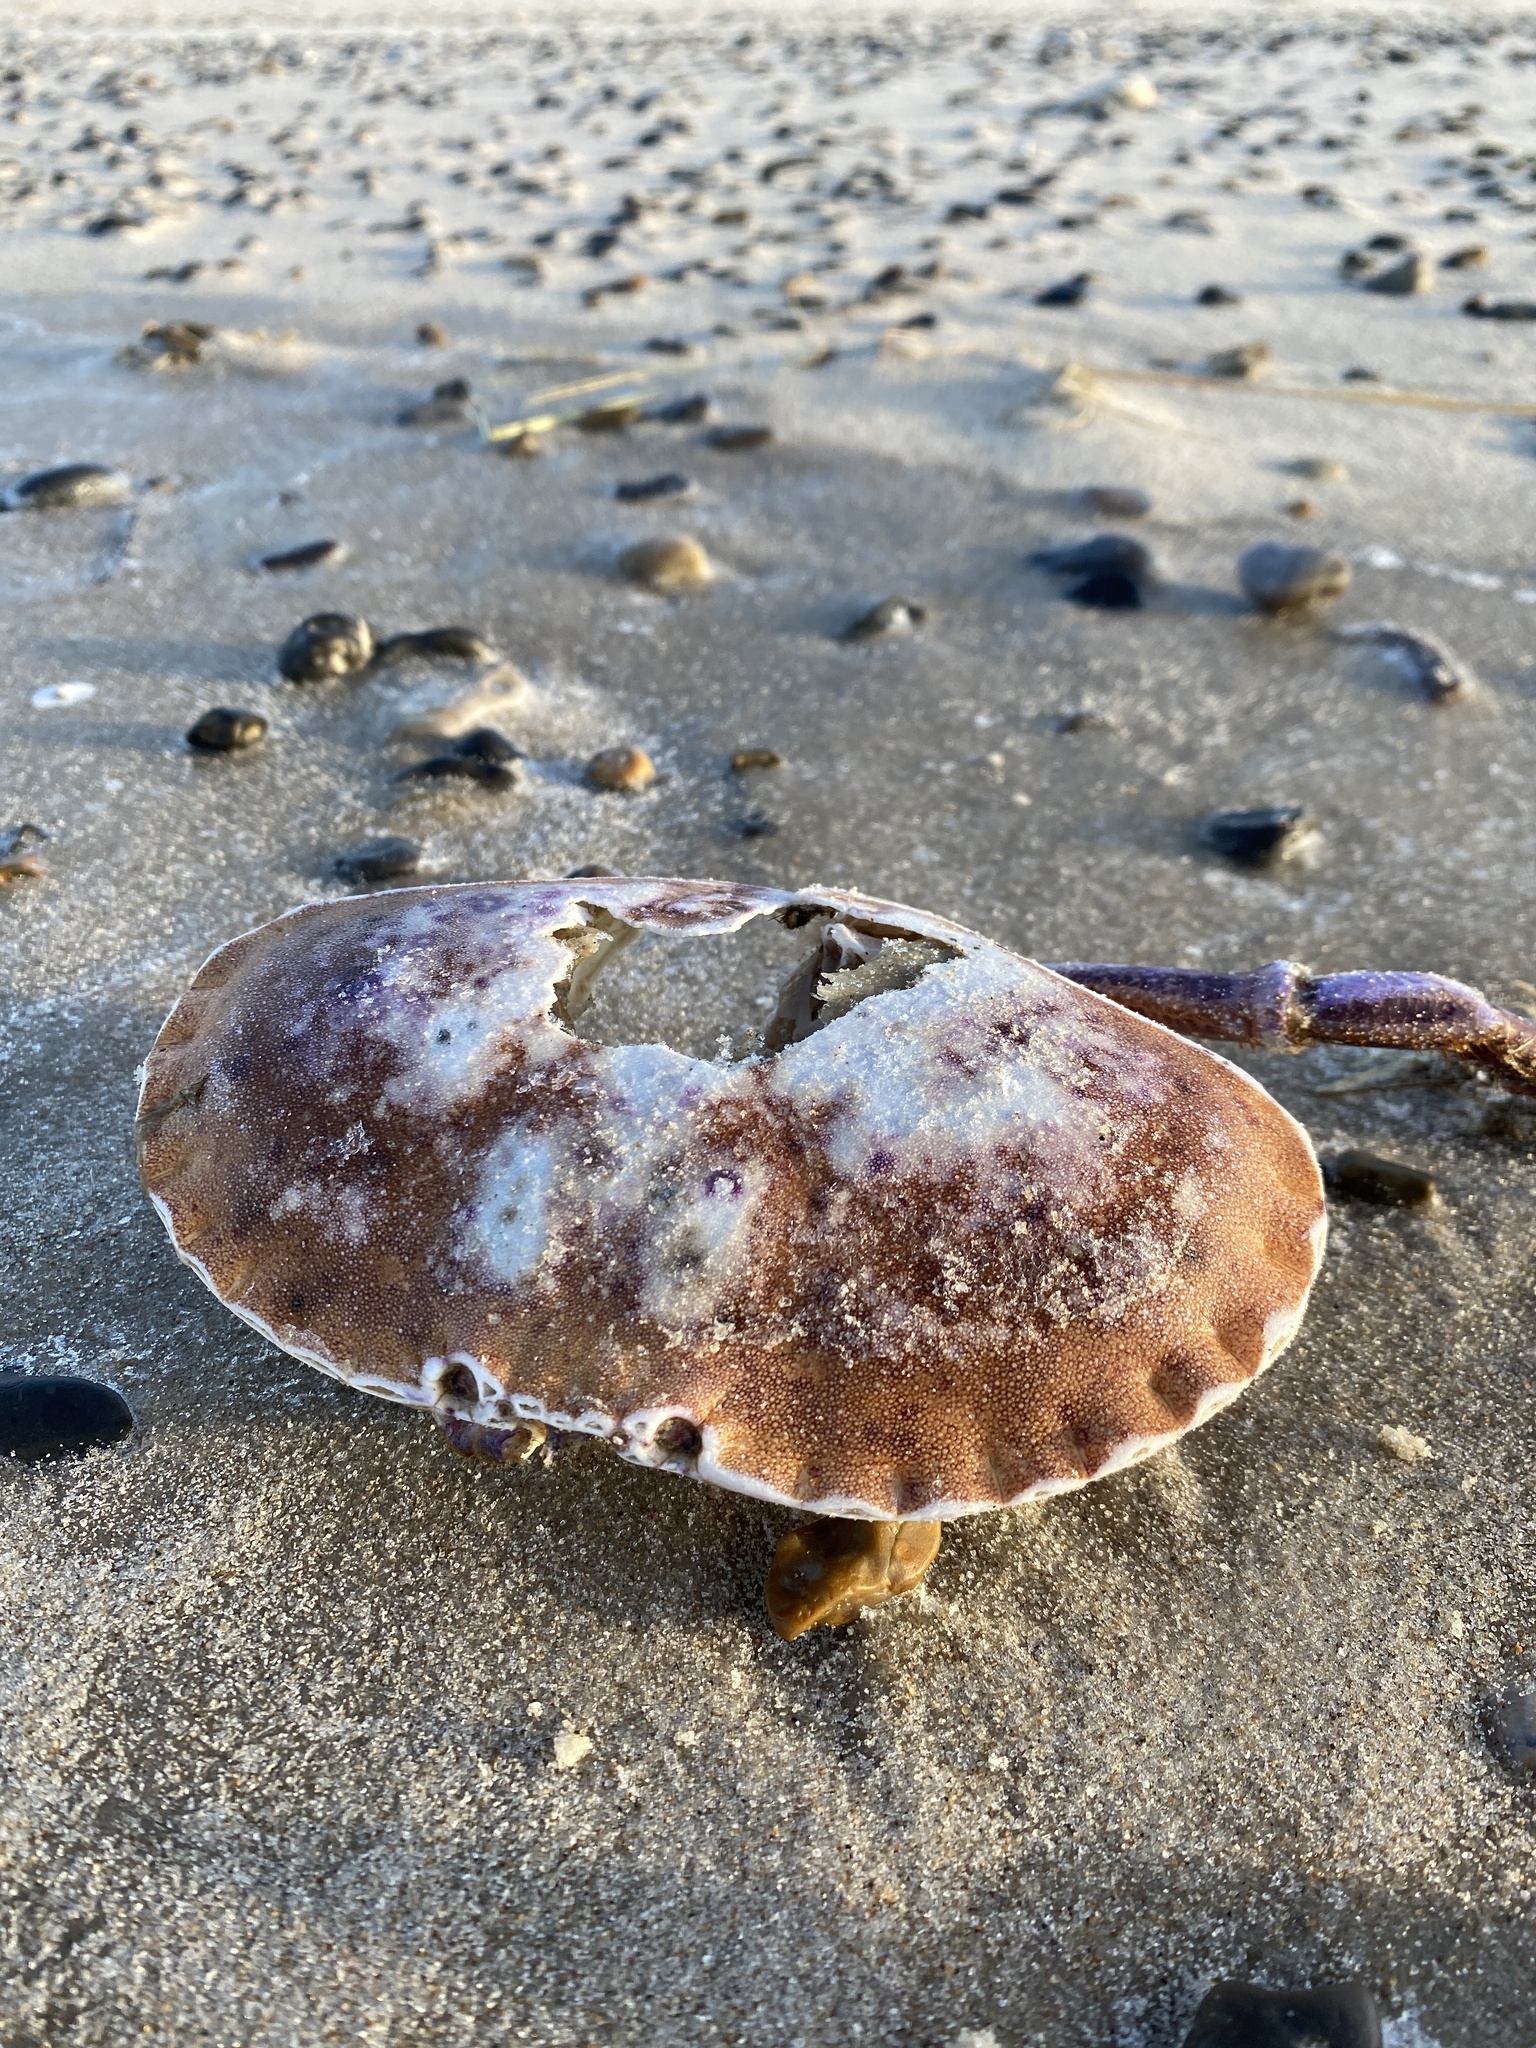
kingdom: Animalia
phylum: Arthropoda
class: Malacostraca
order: Decapoda
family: Cancridae
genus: Cancer
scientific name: Cancer pagurus
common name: Edible crab
